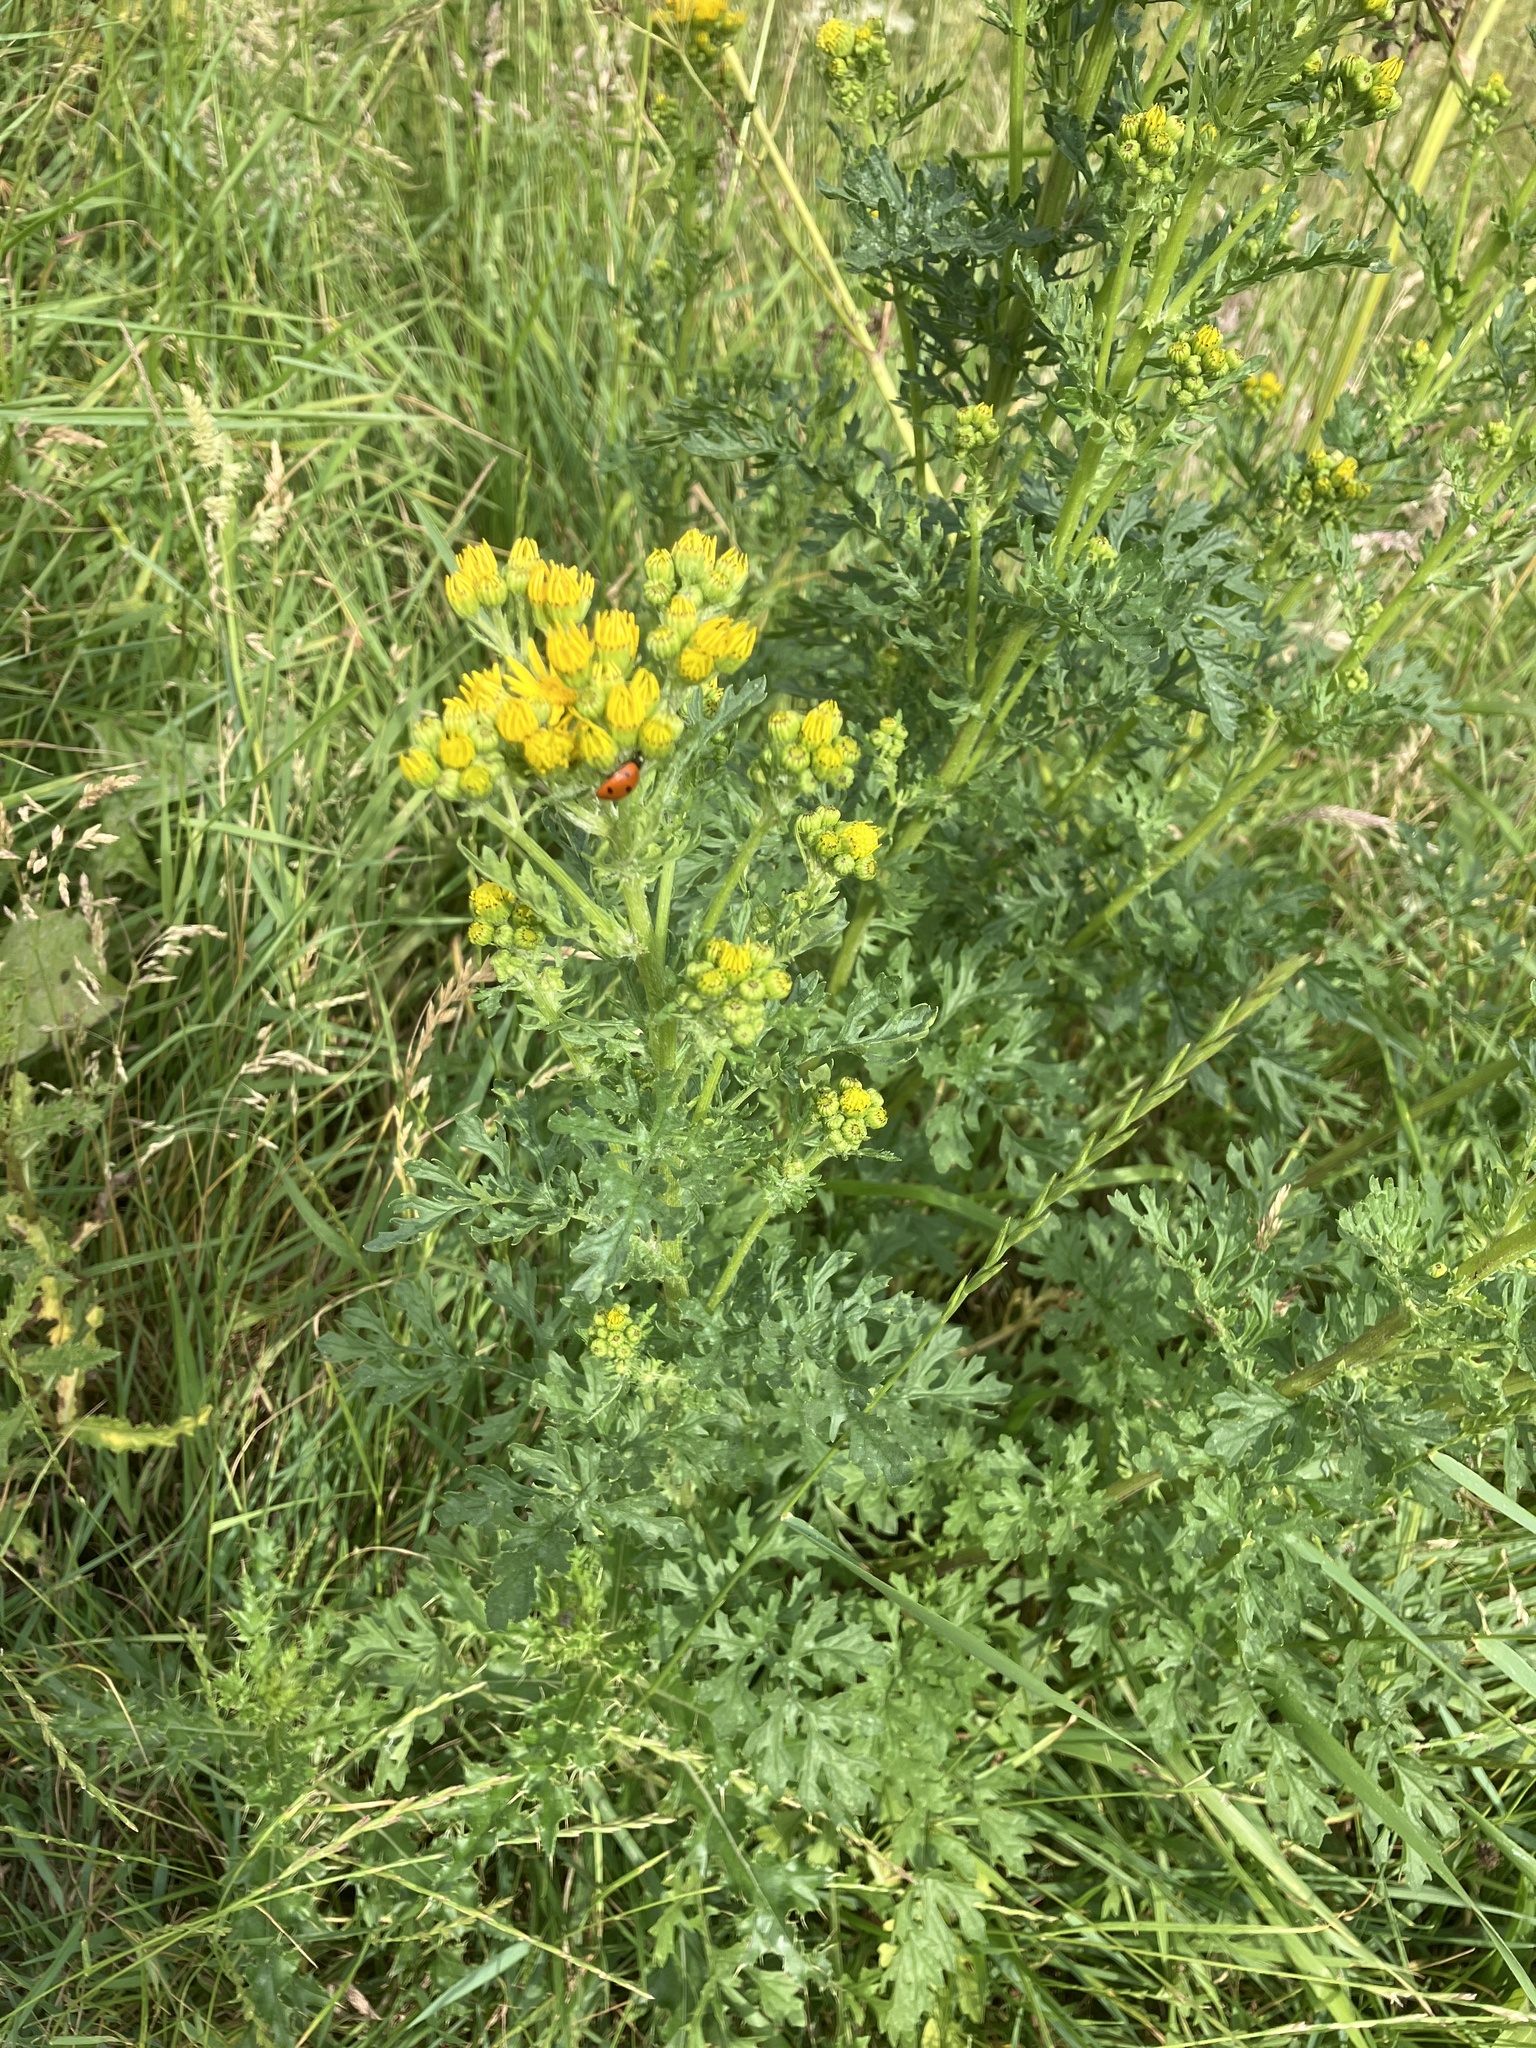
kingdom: Plantae
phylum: Tracheophyta
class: Magnoliopsida
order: Asterales
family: Asteraceae
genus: Jacobaea
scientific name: Jacobaea vulgaris
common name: Stinking willie
